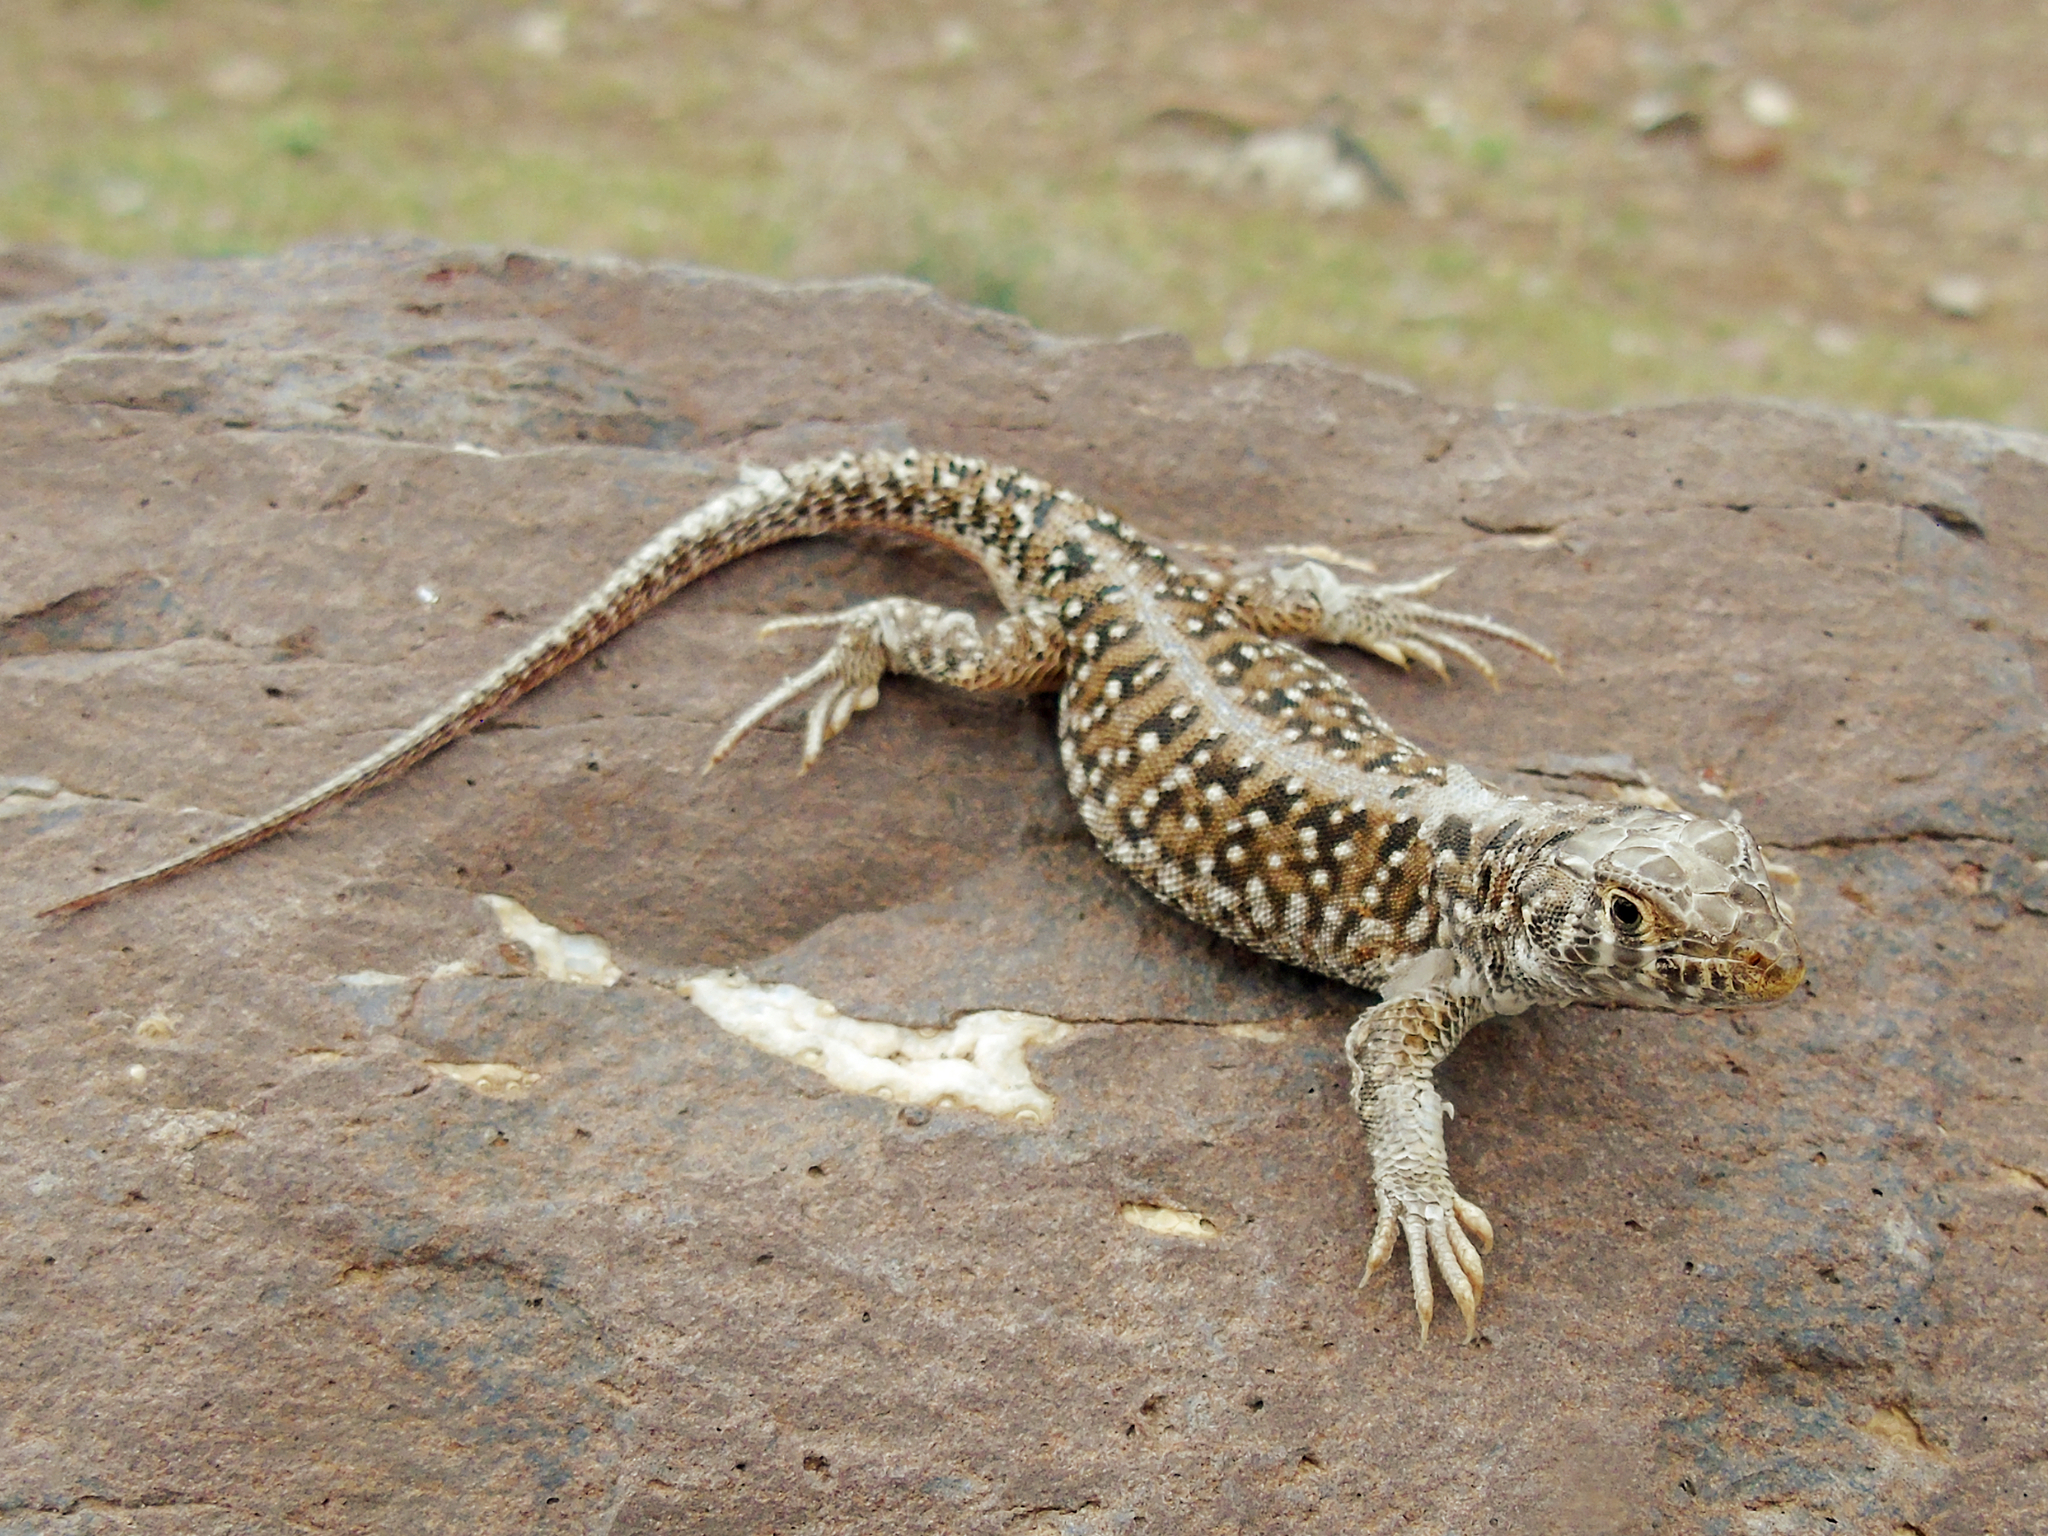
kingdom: Animalia
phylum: Chordata
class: Squamata
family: Lacertidae
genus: Acanthodactylus
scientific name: Acanthodactylus ilgazi
